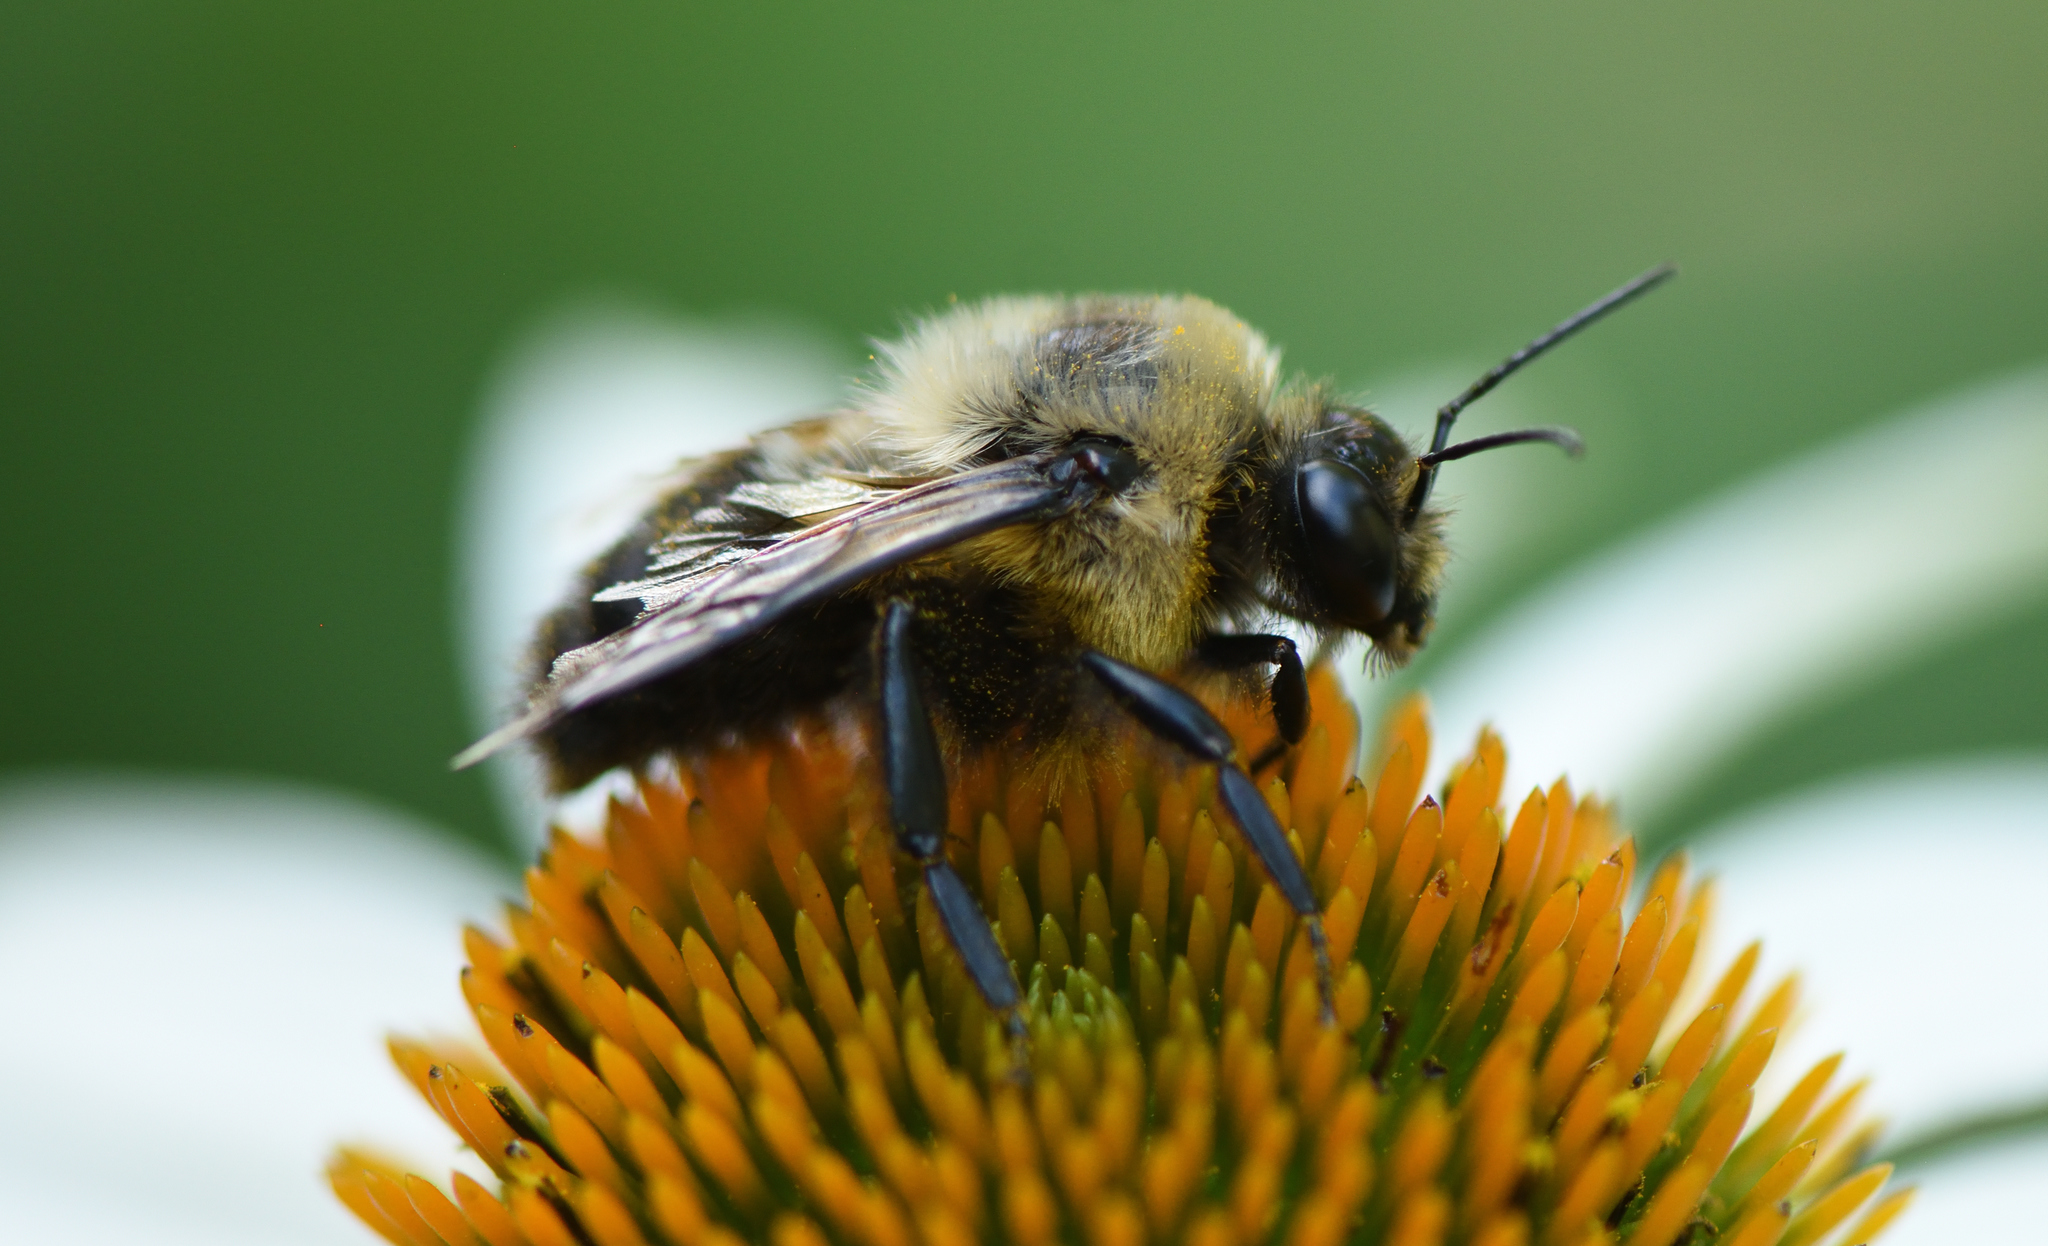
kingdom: Animalia
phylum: Arthropoda
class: Insecta
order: Hymenoptera
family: Apidae
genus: Bombus
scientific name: Bombus griseocollis
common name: Brown-belted bumble bee
